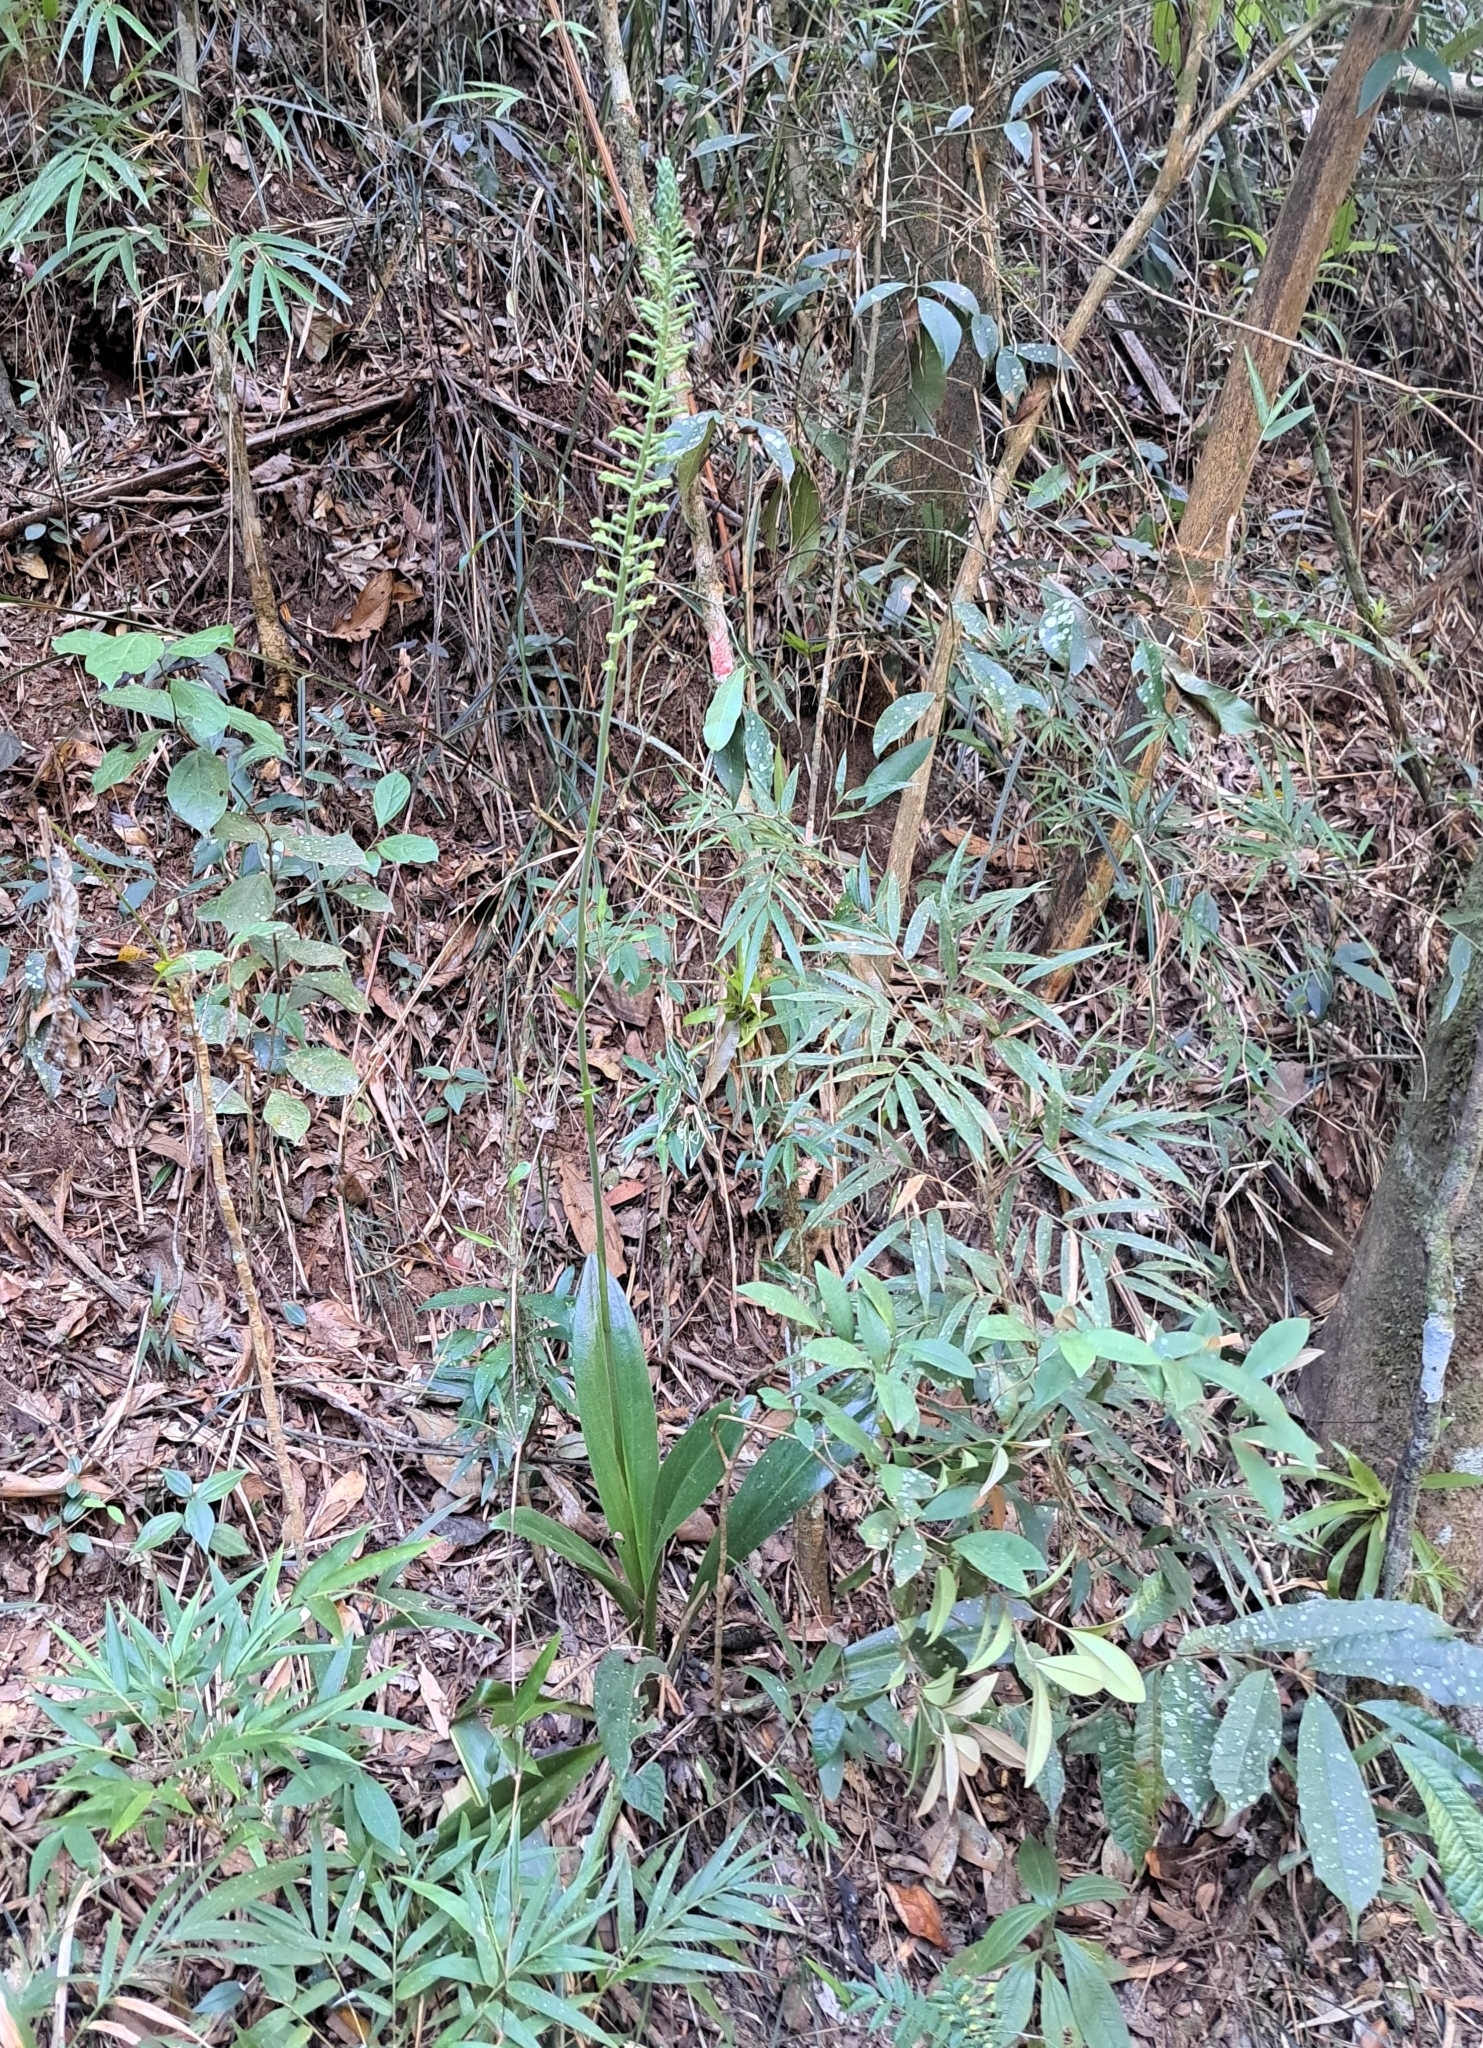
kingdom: Plantae
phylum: Tracheophyta
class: Liliopsida
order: Asparagales
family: Orchidaceae
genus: Sauroglossum
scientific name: Sauroglossum elatum
